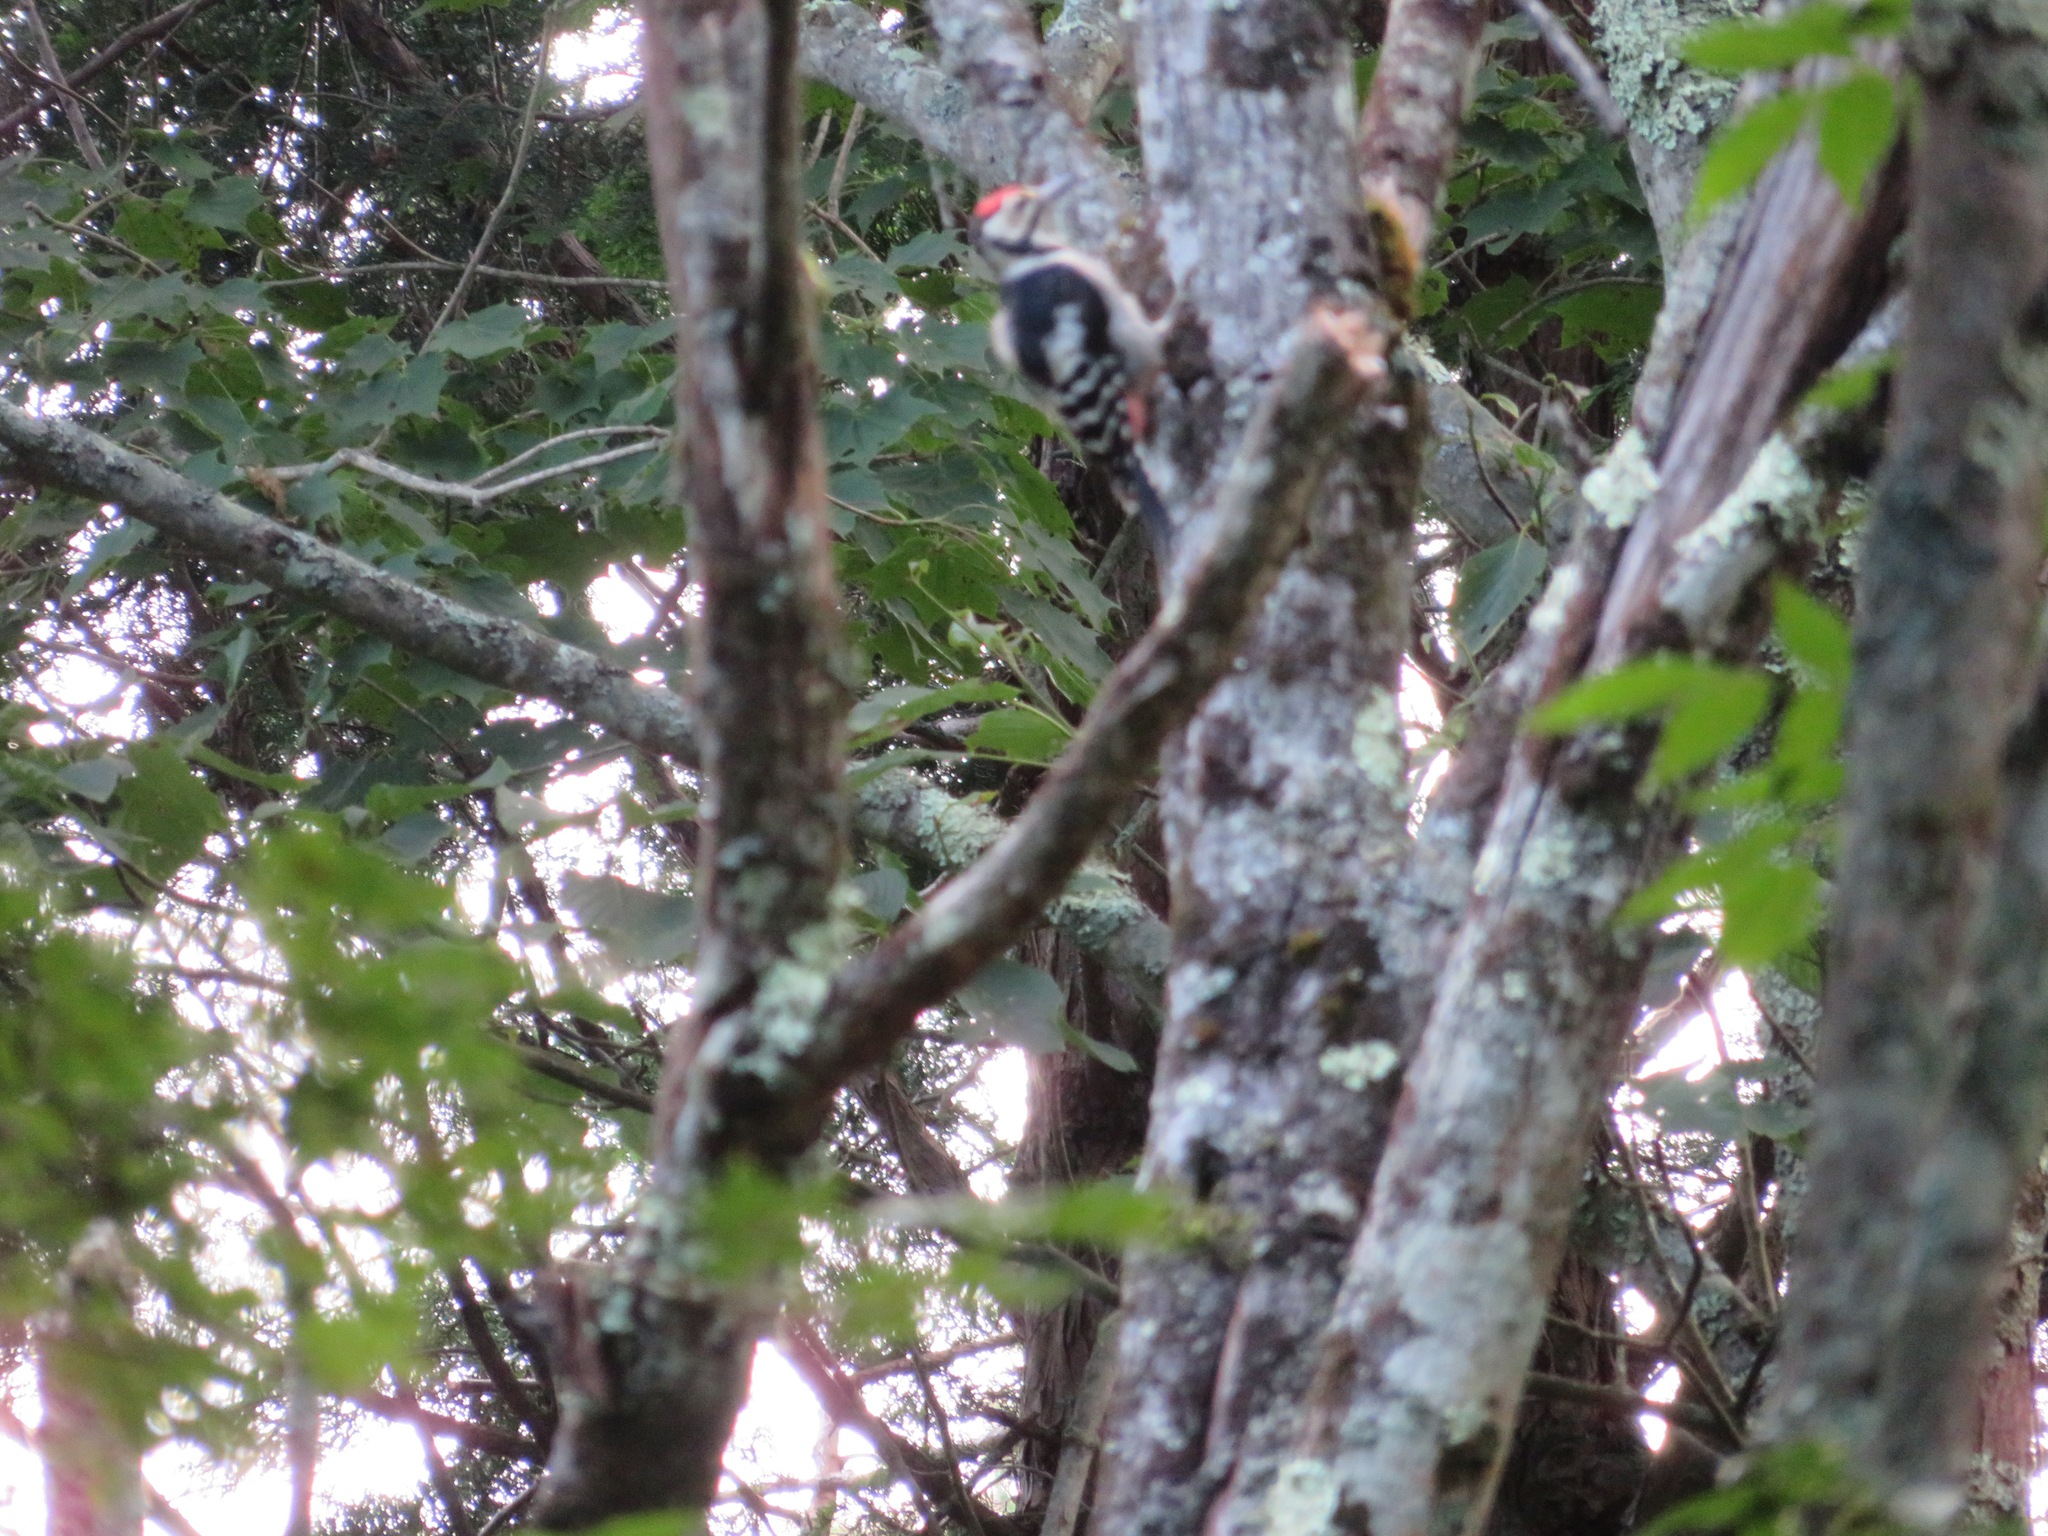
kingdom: Animalia
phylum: Chordata
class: Aves
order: Piciformes
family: Picidae
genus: Dendrocopos
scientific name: Dendrocopos major
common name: Great spotted woodpecker
